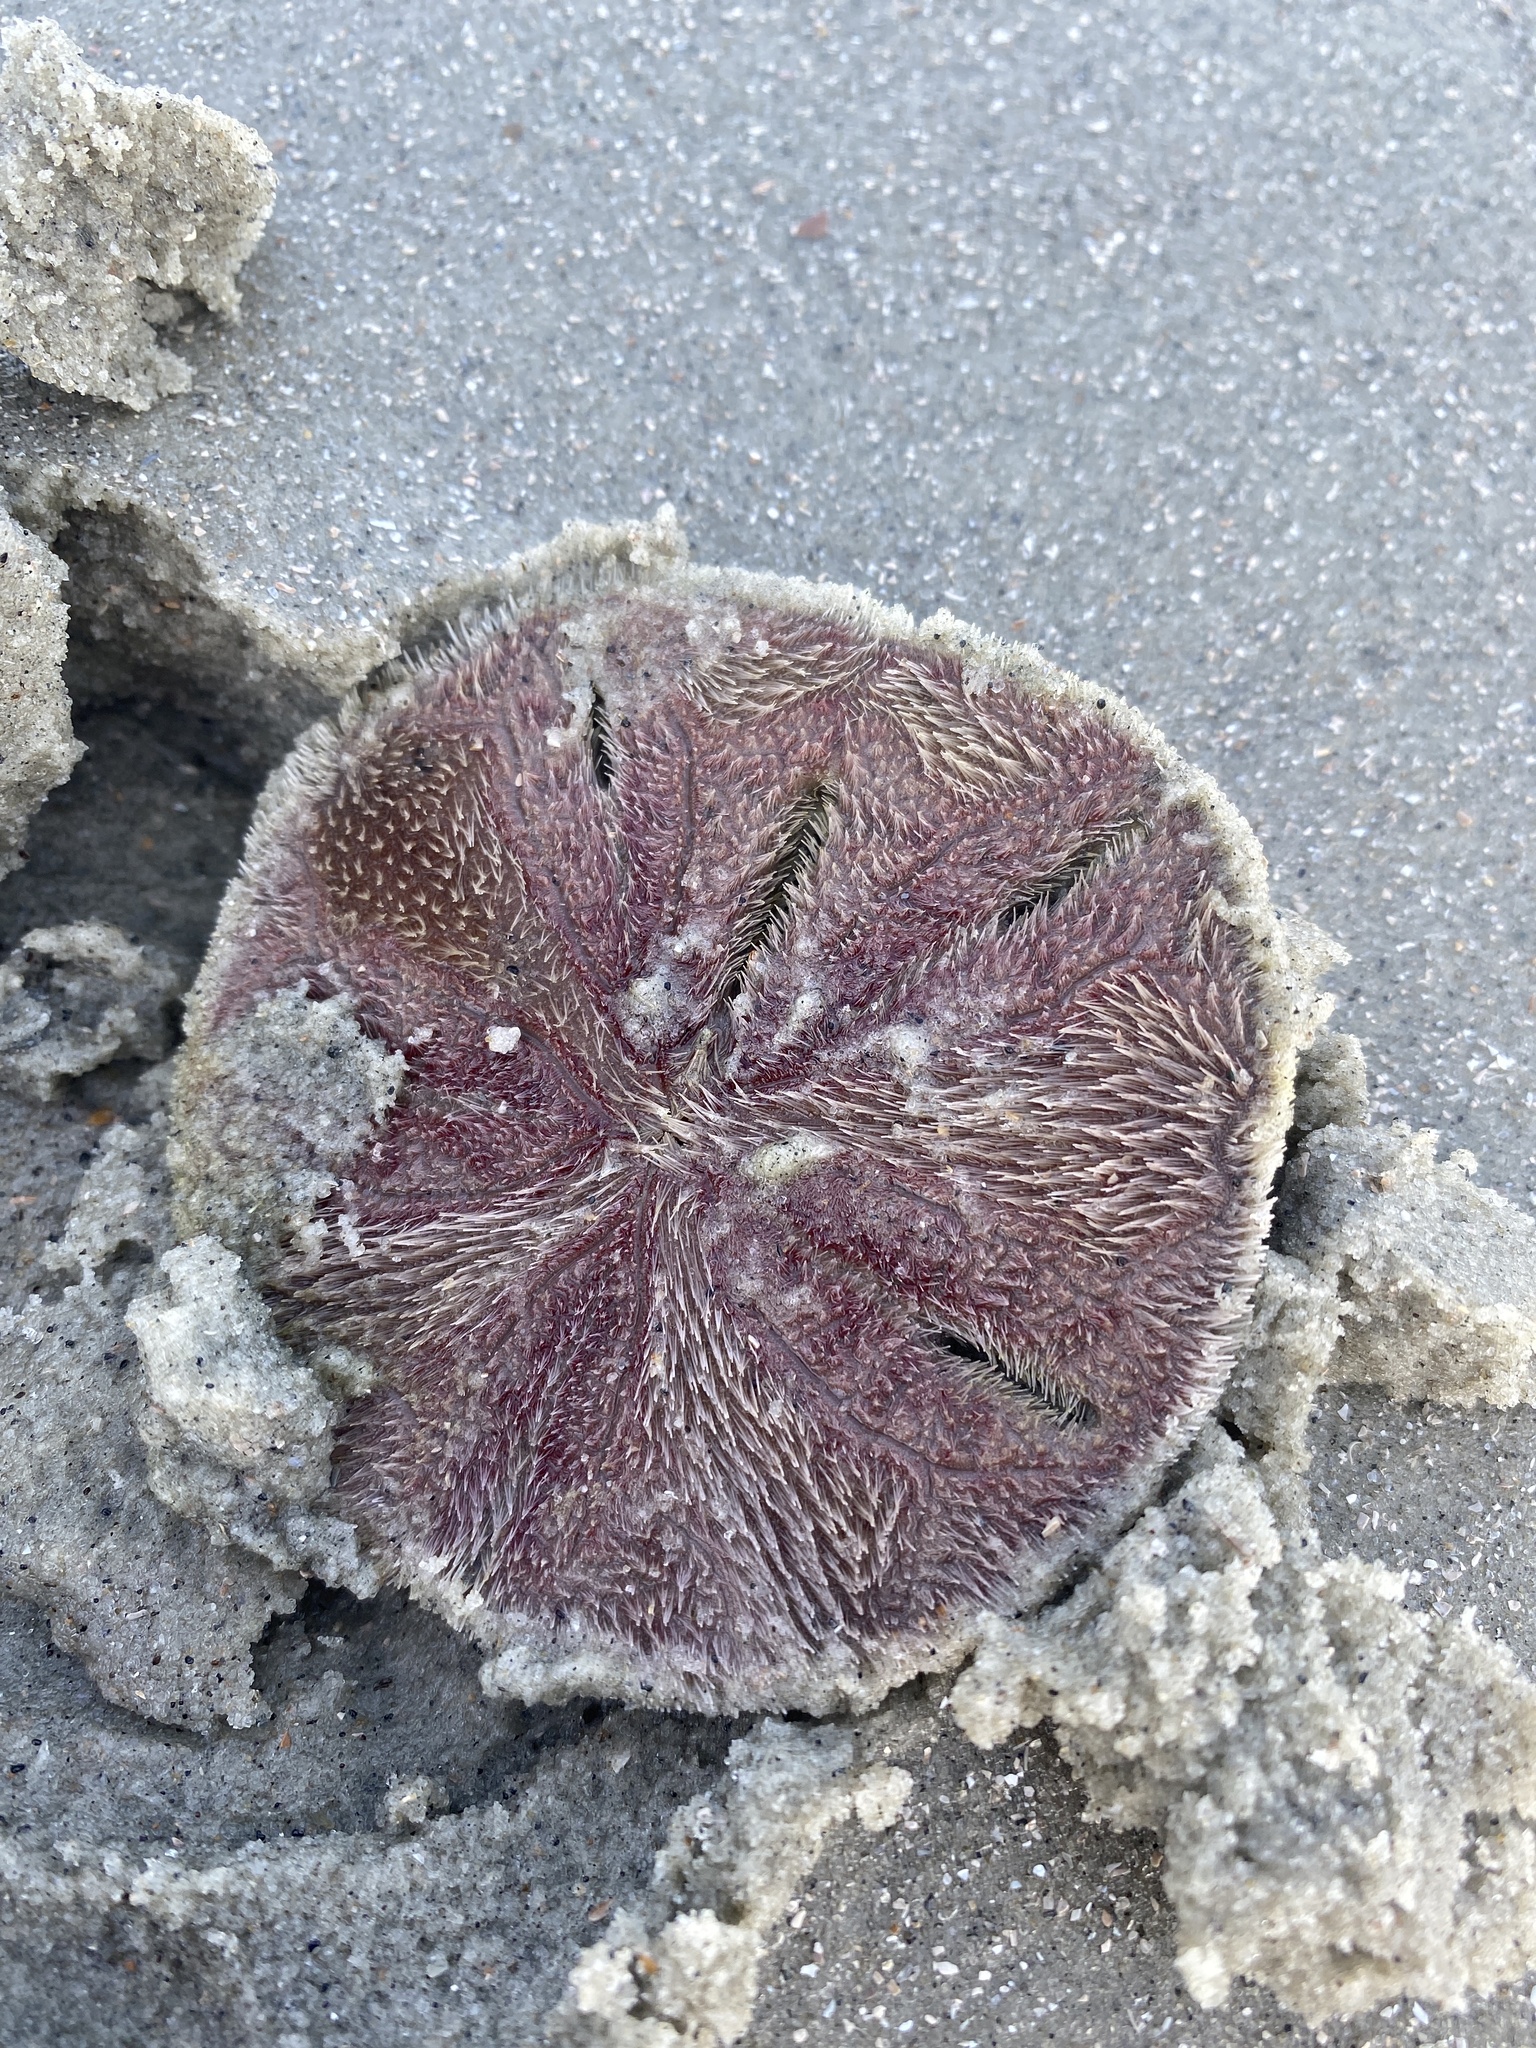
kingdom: Animalia
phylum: Echinodermata
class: Echinoidea
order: Echinolampadacea
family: Mellitidae
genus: Mellita
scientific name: Mellita isometra
